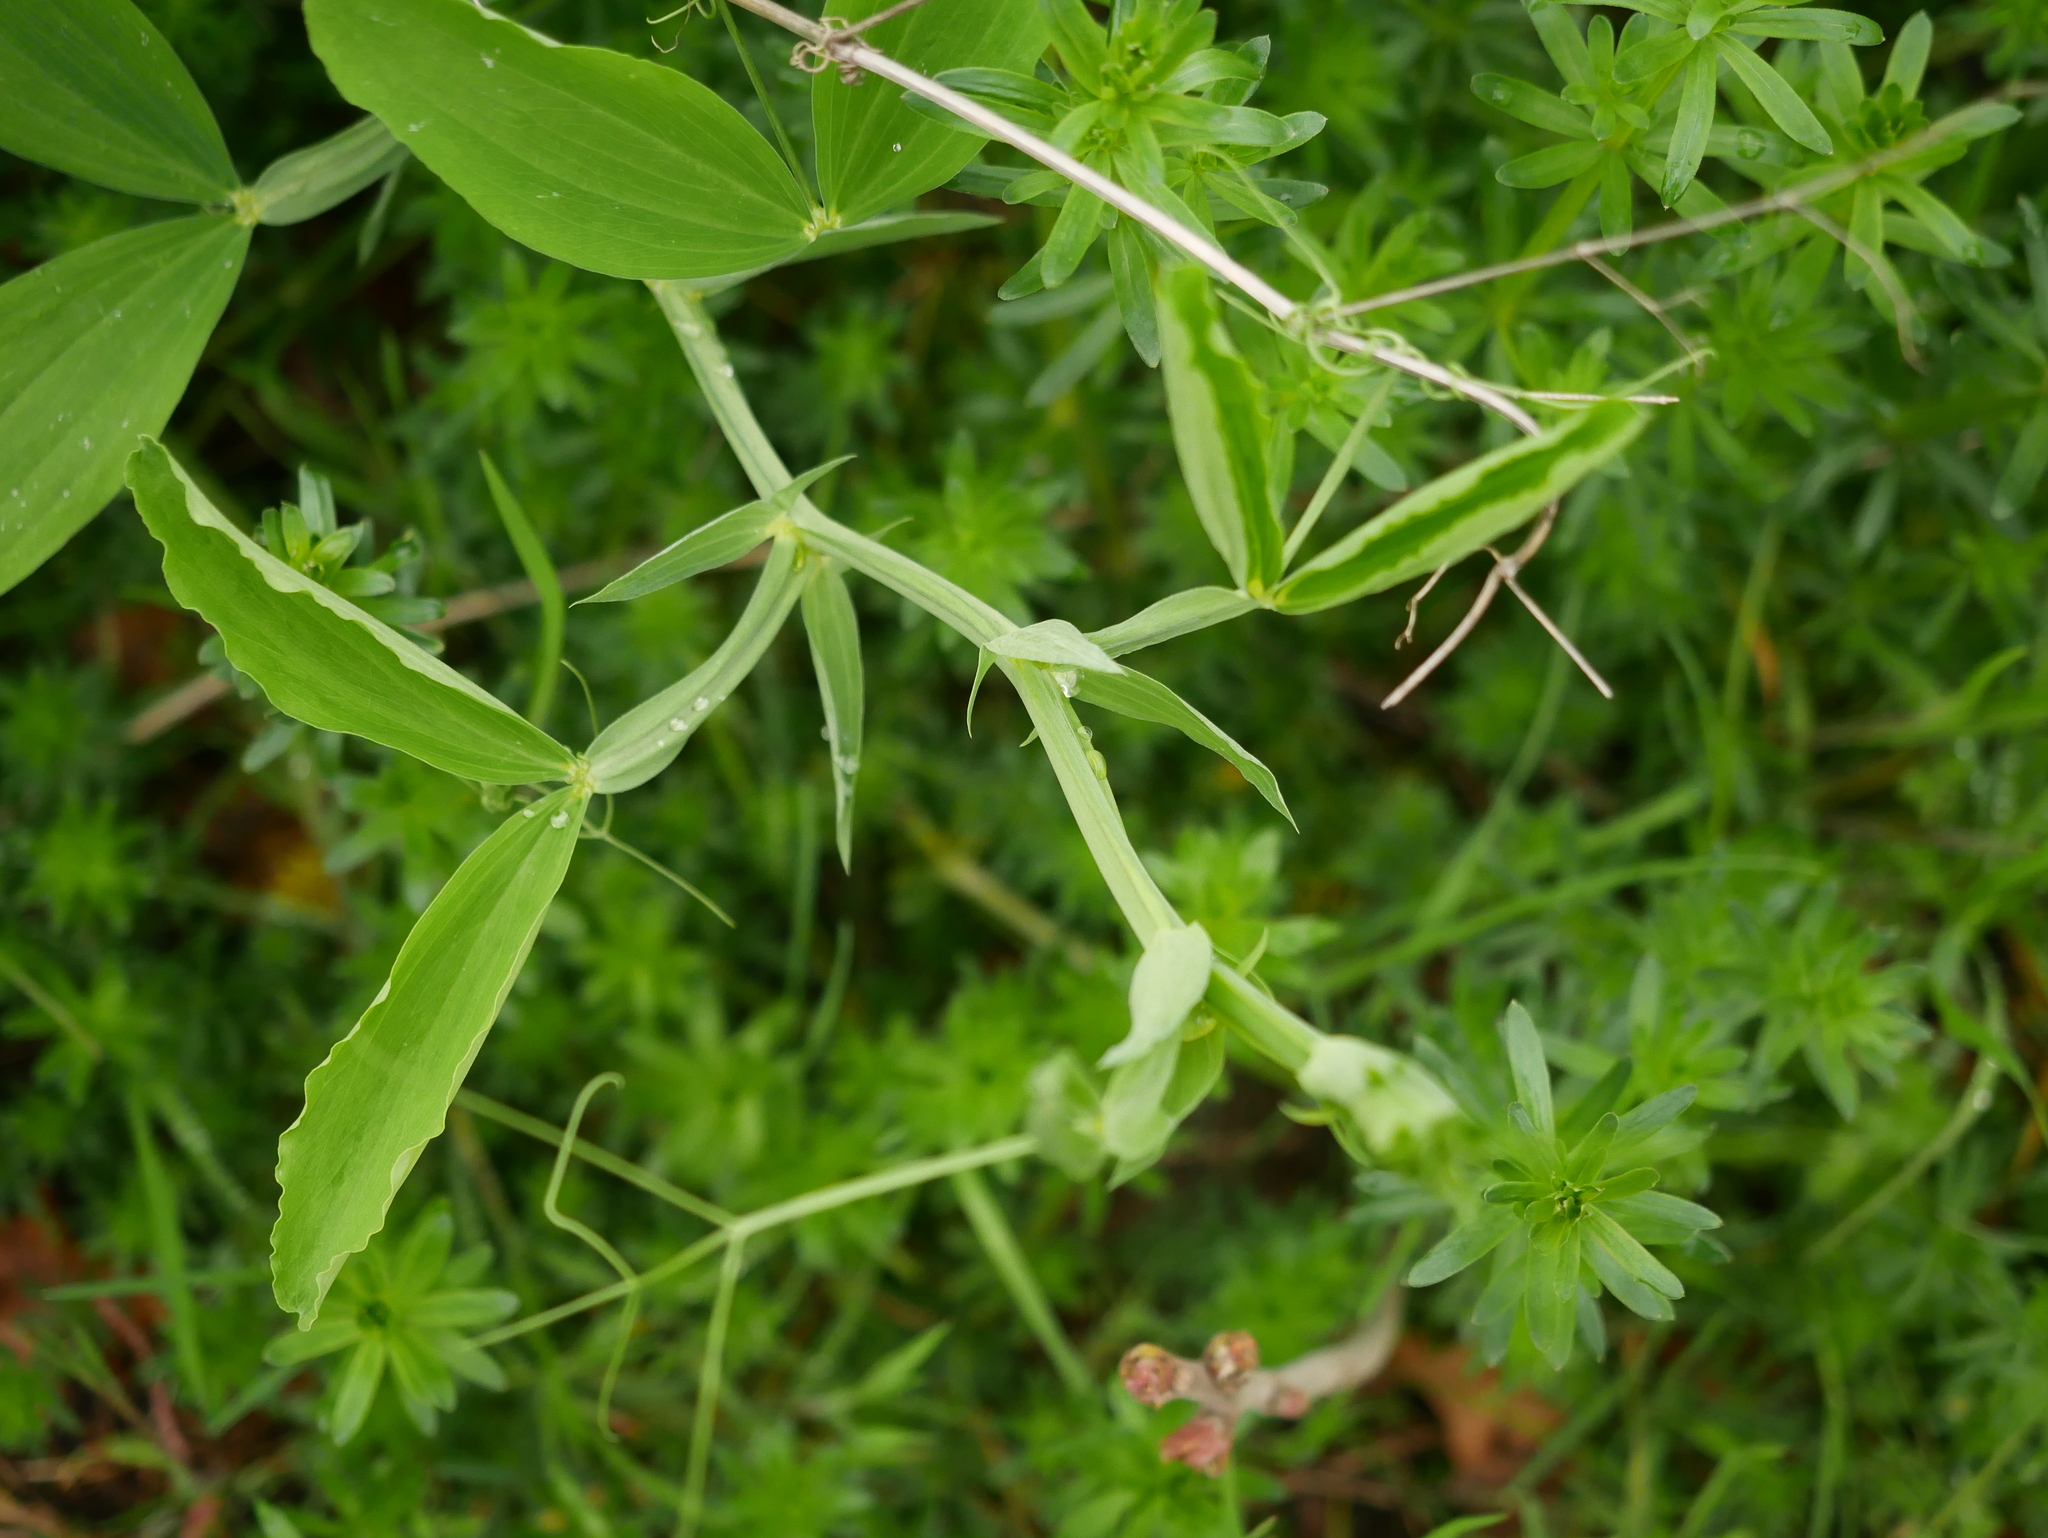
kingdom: Plantae
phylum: Tracheophyta
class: Magnoliopsida
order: Fabales
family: Fabaceae
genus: Lathyrus
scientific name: Lathyrus latifolius
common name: Perennial pea
